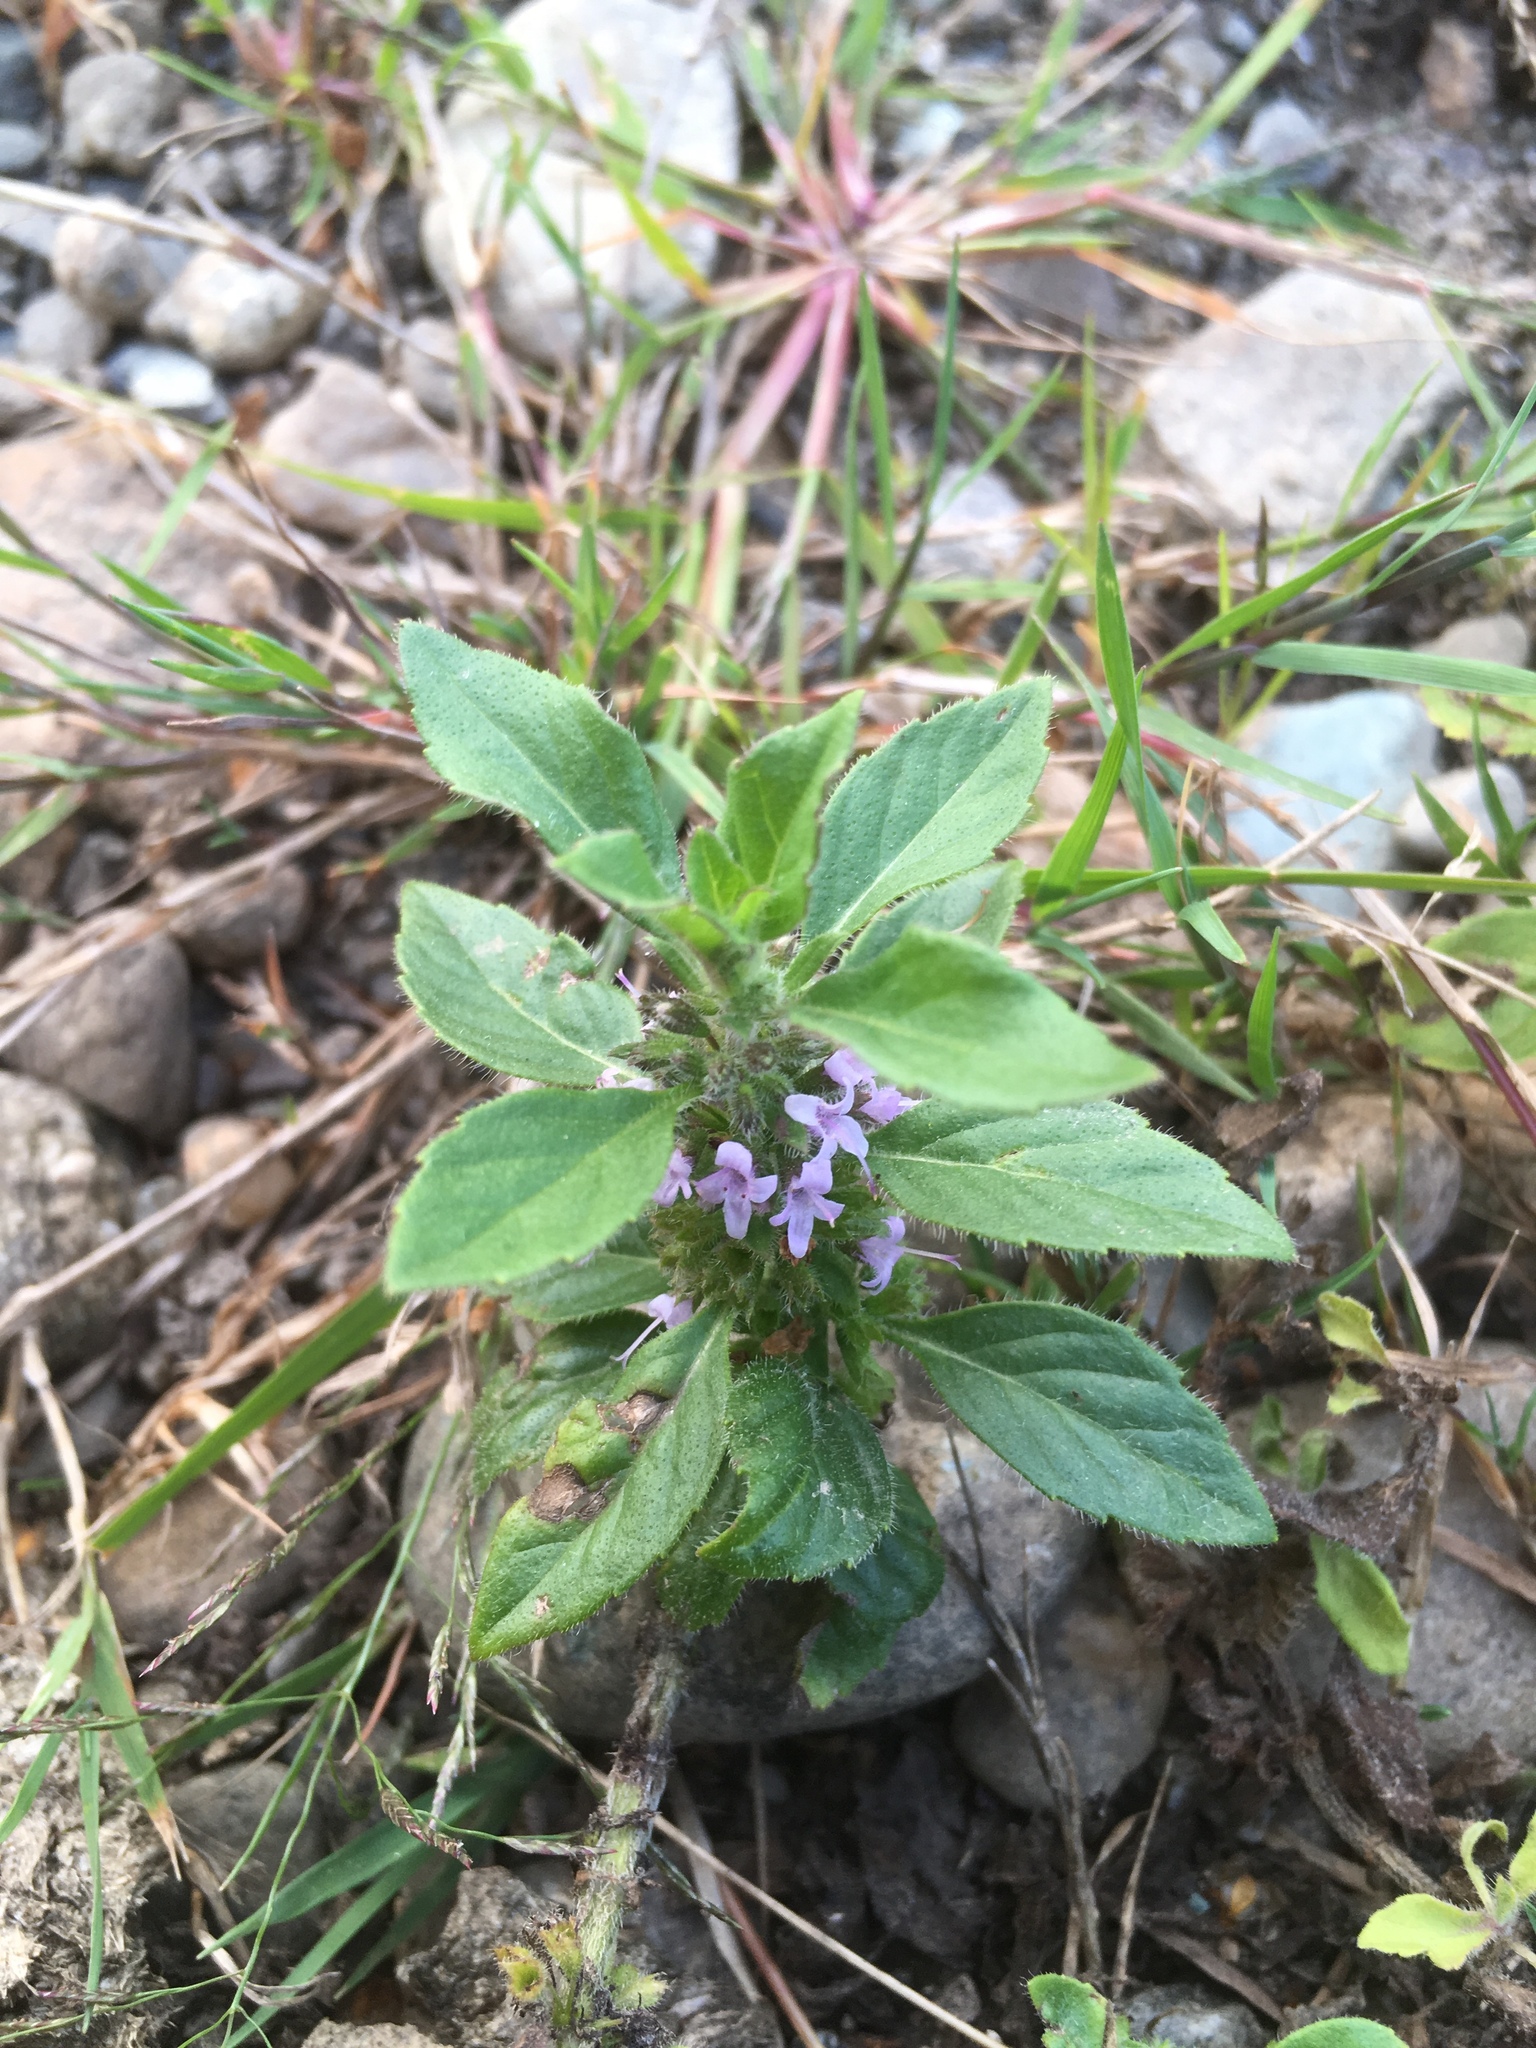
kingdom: Plantae
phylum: Tracheophyta
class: Magnoliopsida
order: Lamiales
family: Lamiaceae
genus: Mentha
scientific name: Mentha arvensis
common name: Corn mint
